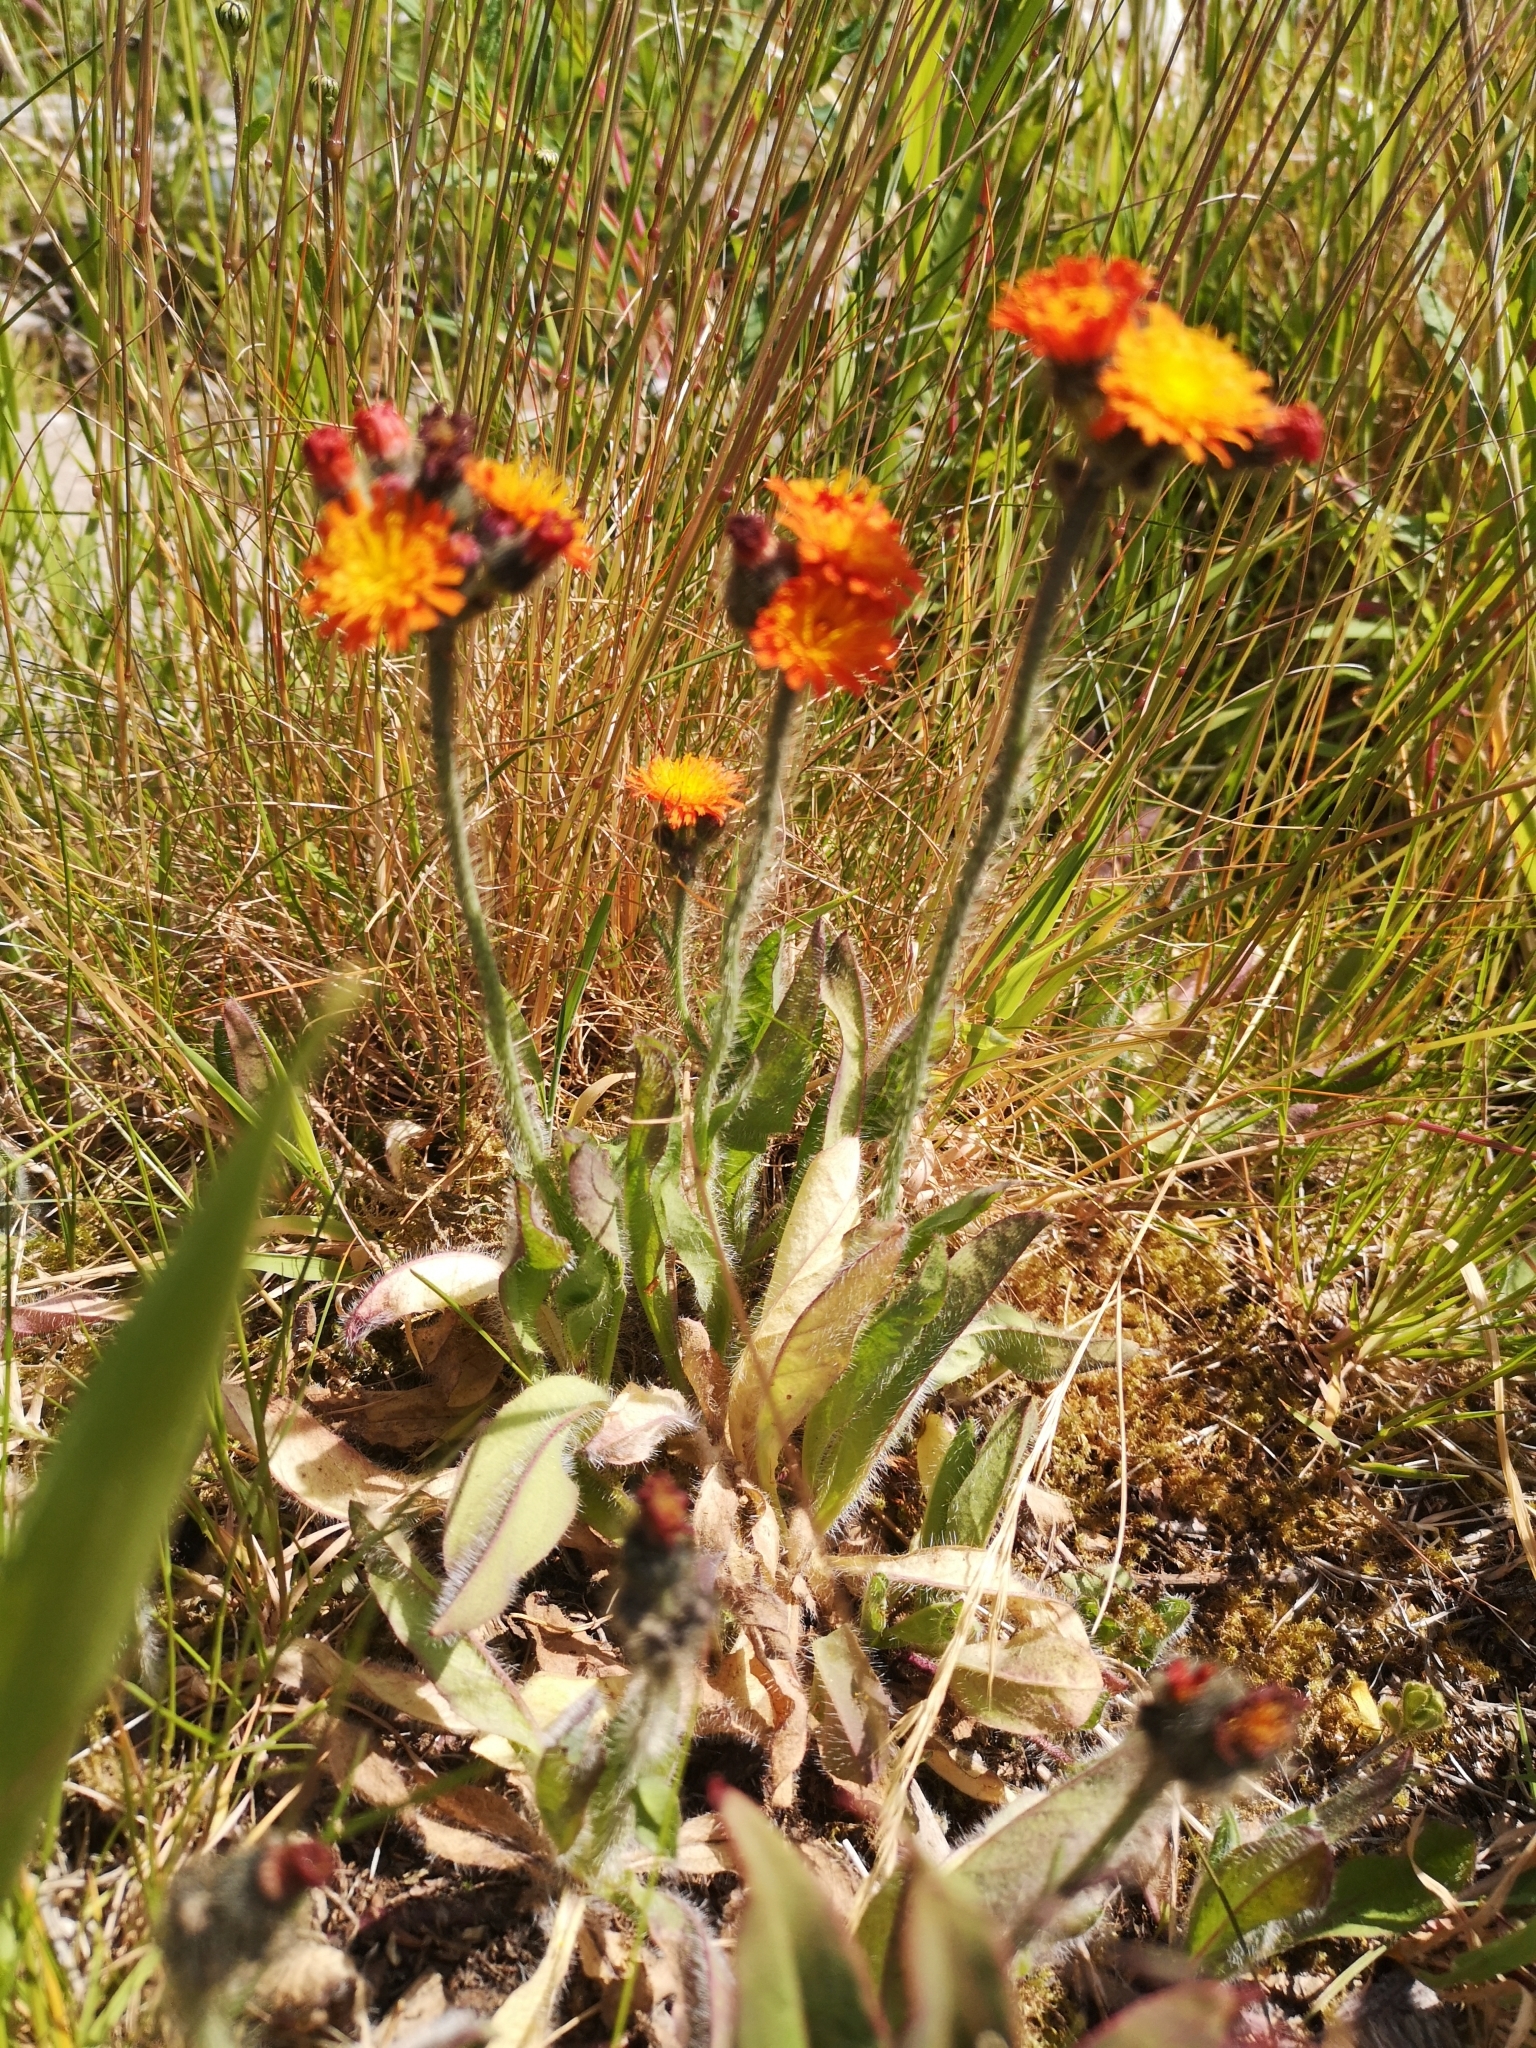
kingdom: Plantae
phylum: Tracheophyta
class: Magnoliopsida
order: Asterales
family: Asteraceae
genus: Pilosella
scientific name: Pilosella aurantiaca
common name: Fox-and-cubs
